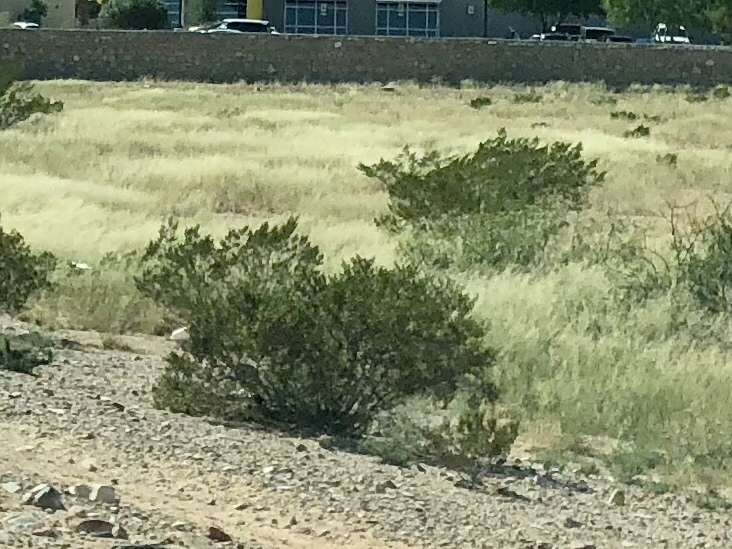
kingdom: Plantae
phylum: Tracheophyta
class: Magnoliopsida
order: Zygophyllales
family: Zygophyllaceae
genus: Larrea
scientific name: Larrea tridentata
